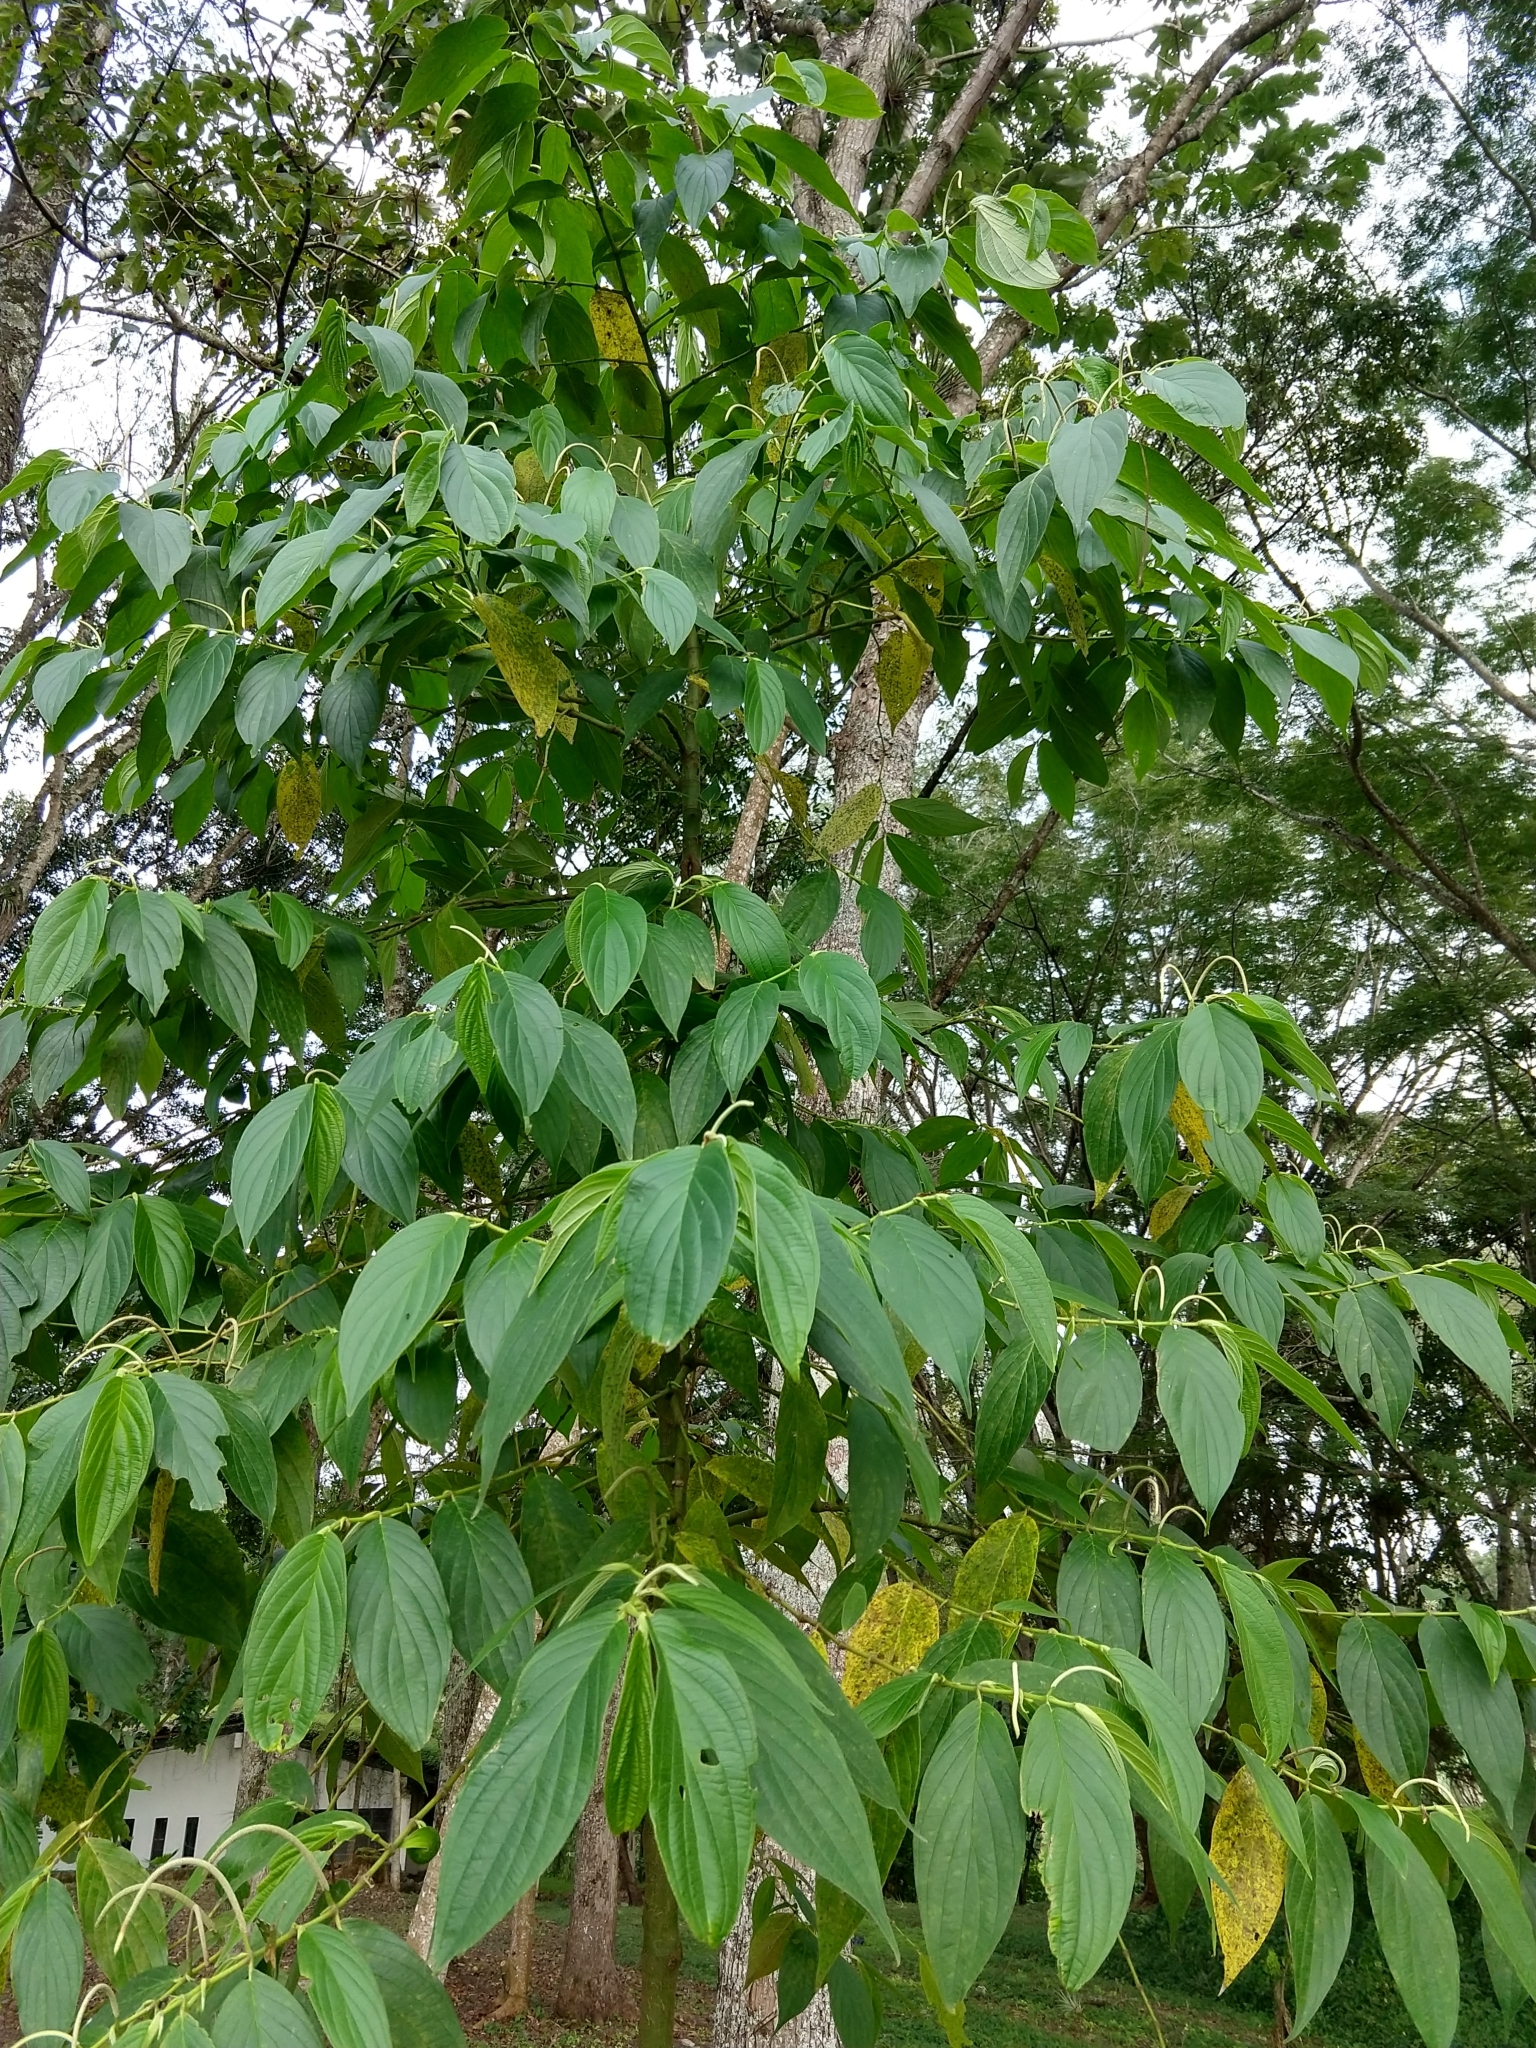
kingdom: Plantae
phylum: Tracheophyta
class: Magnoliopsida
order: Piperales
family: Piperaceae
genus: Piper
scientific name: Piper aduncum
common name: Spiked pepper
